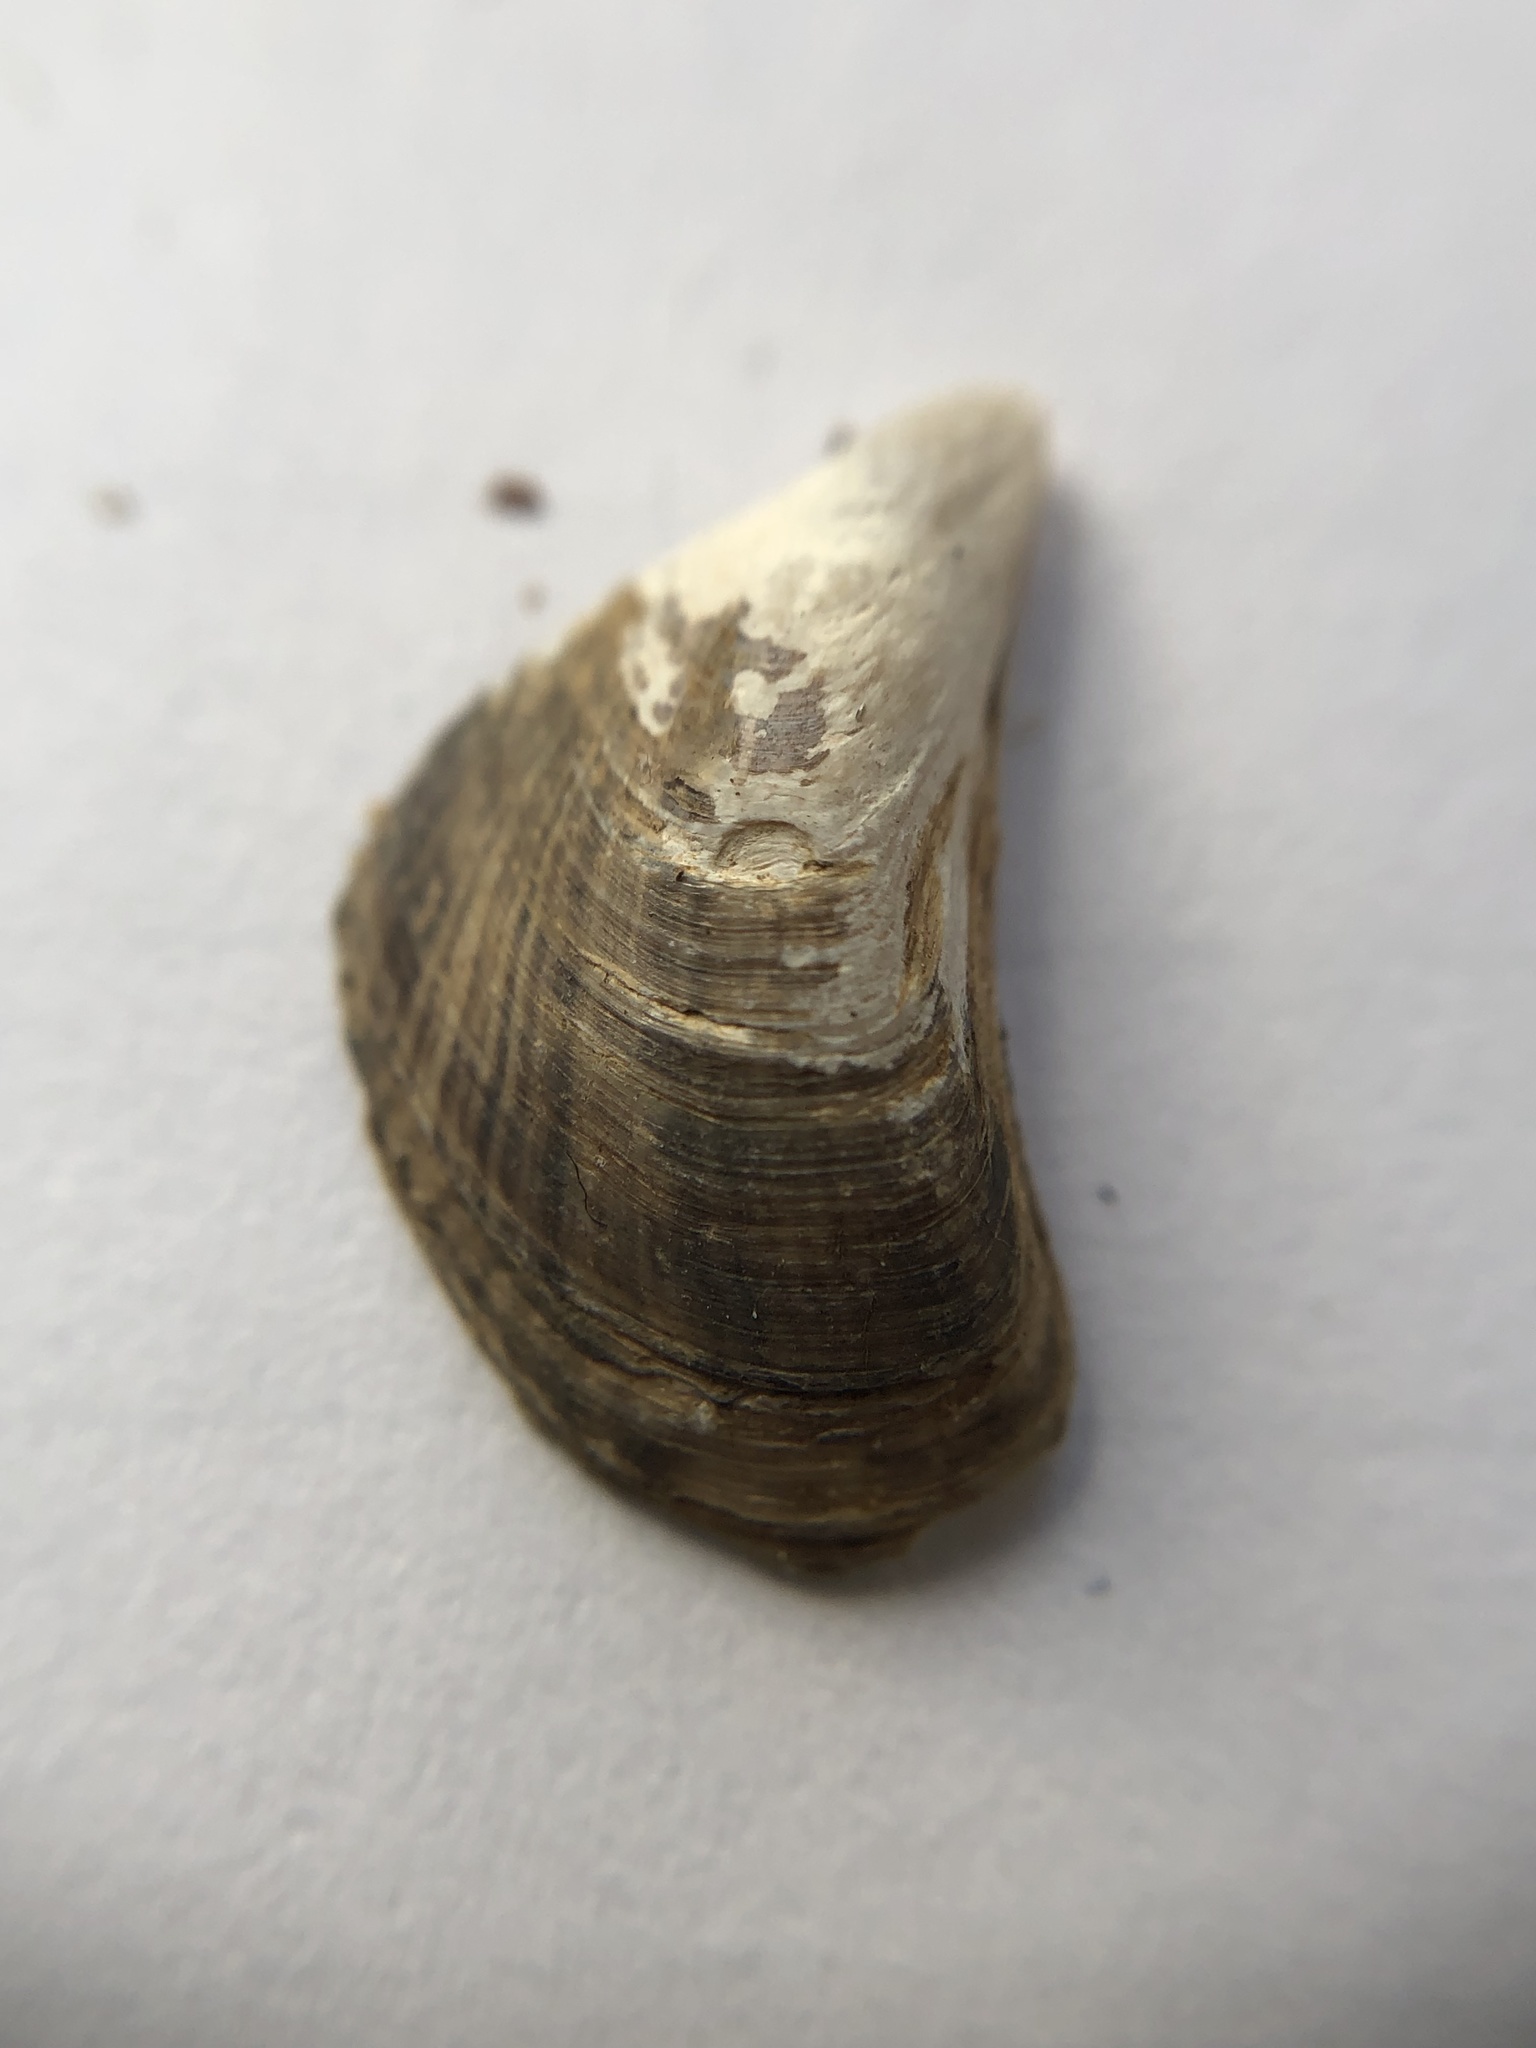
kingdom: Animalia
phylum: Mollusca
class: Bivalvia
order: Myida
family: Dreissenidae
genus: Dreissena
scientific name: Dreissena bugensis
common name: Quagga mussel
